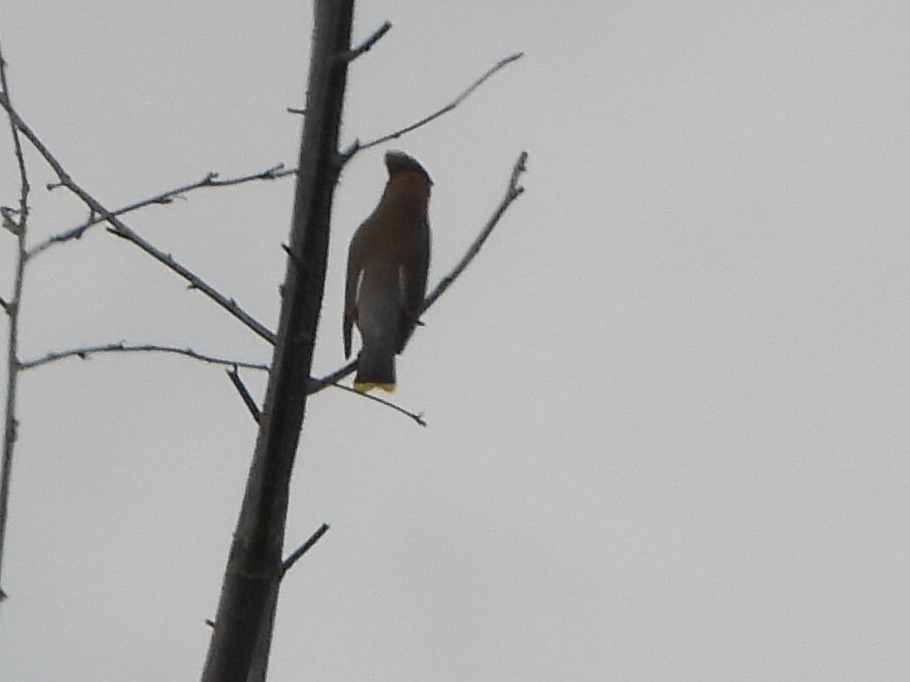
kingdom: Animalia
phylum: Chordata
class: Aves
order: Passeriformes
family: Bombycillidae
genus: Bombycilla
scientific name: Bombycilla cedrorum
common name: Cedar waxwing
